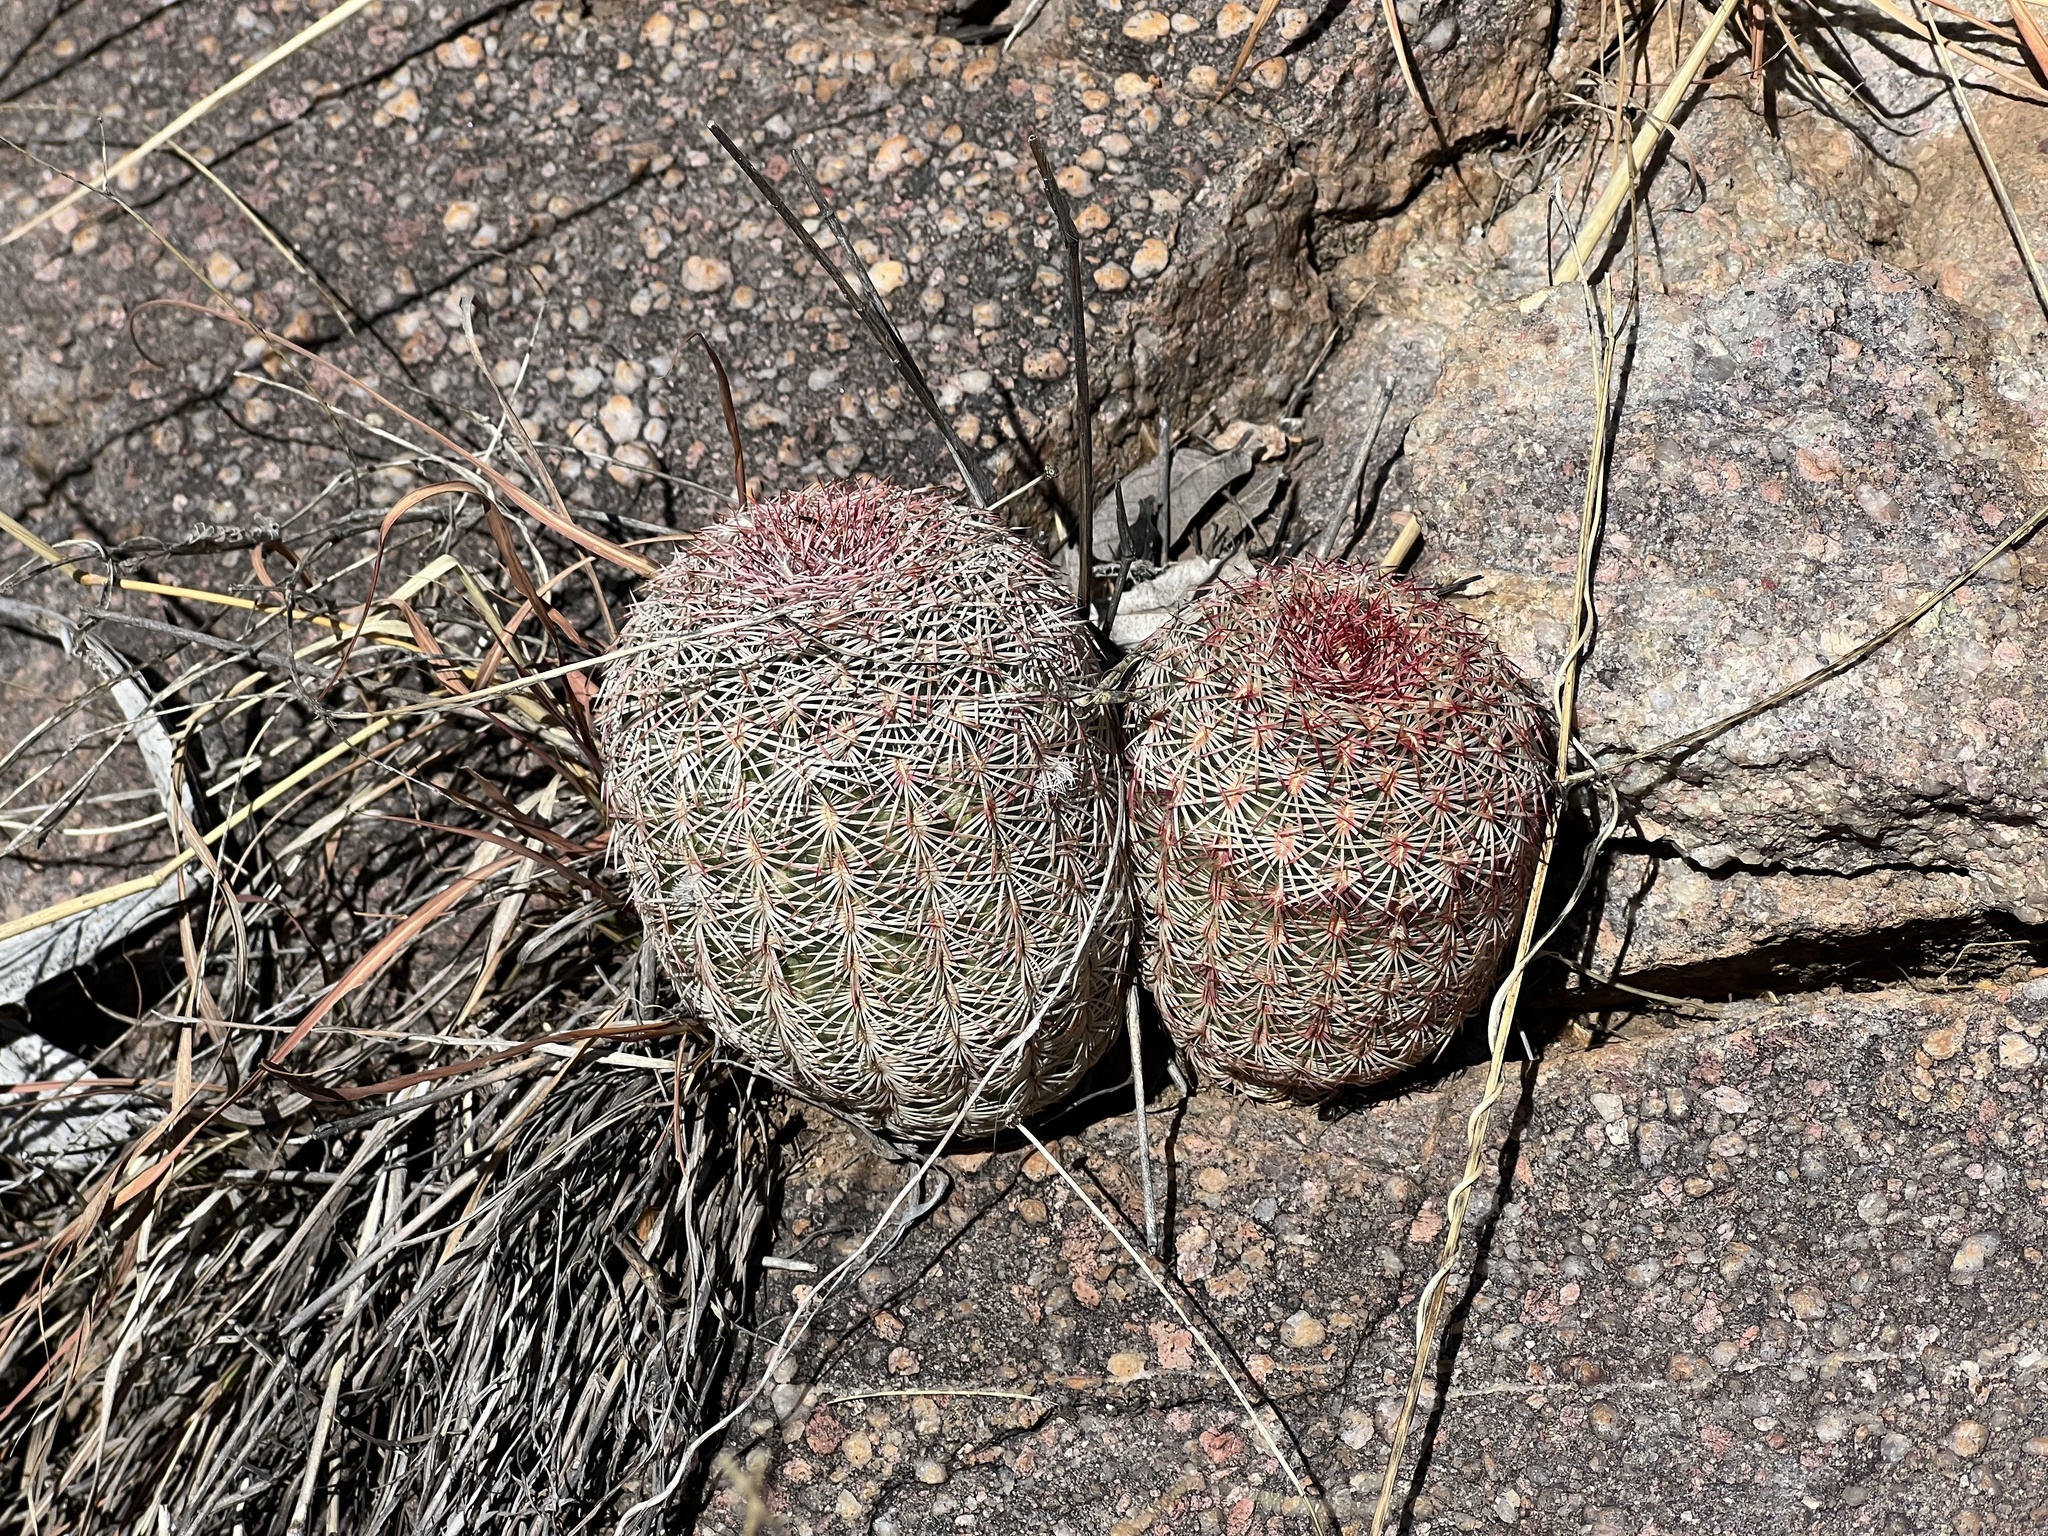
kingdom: Plantae
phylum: Tracheophyta
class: Magnoliopsida
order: Caryophyllales
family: Cactaceae
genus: Echinocereus
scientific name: Echinocereus rigidissimus
